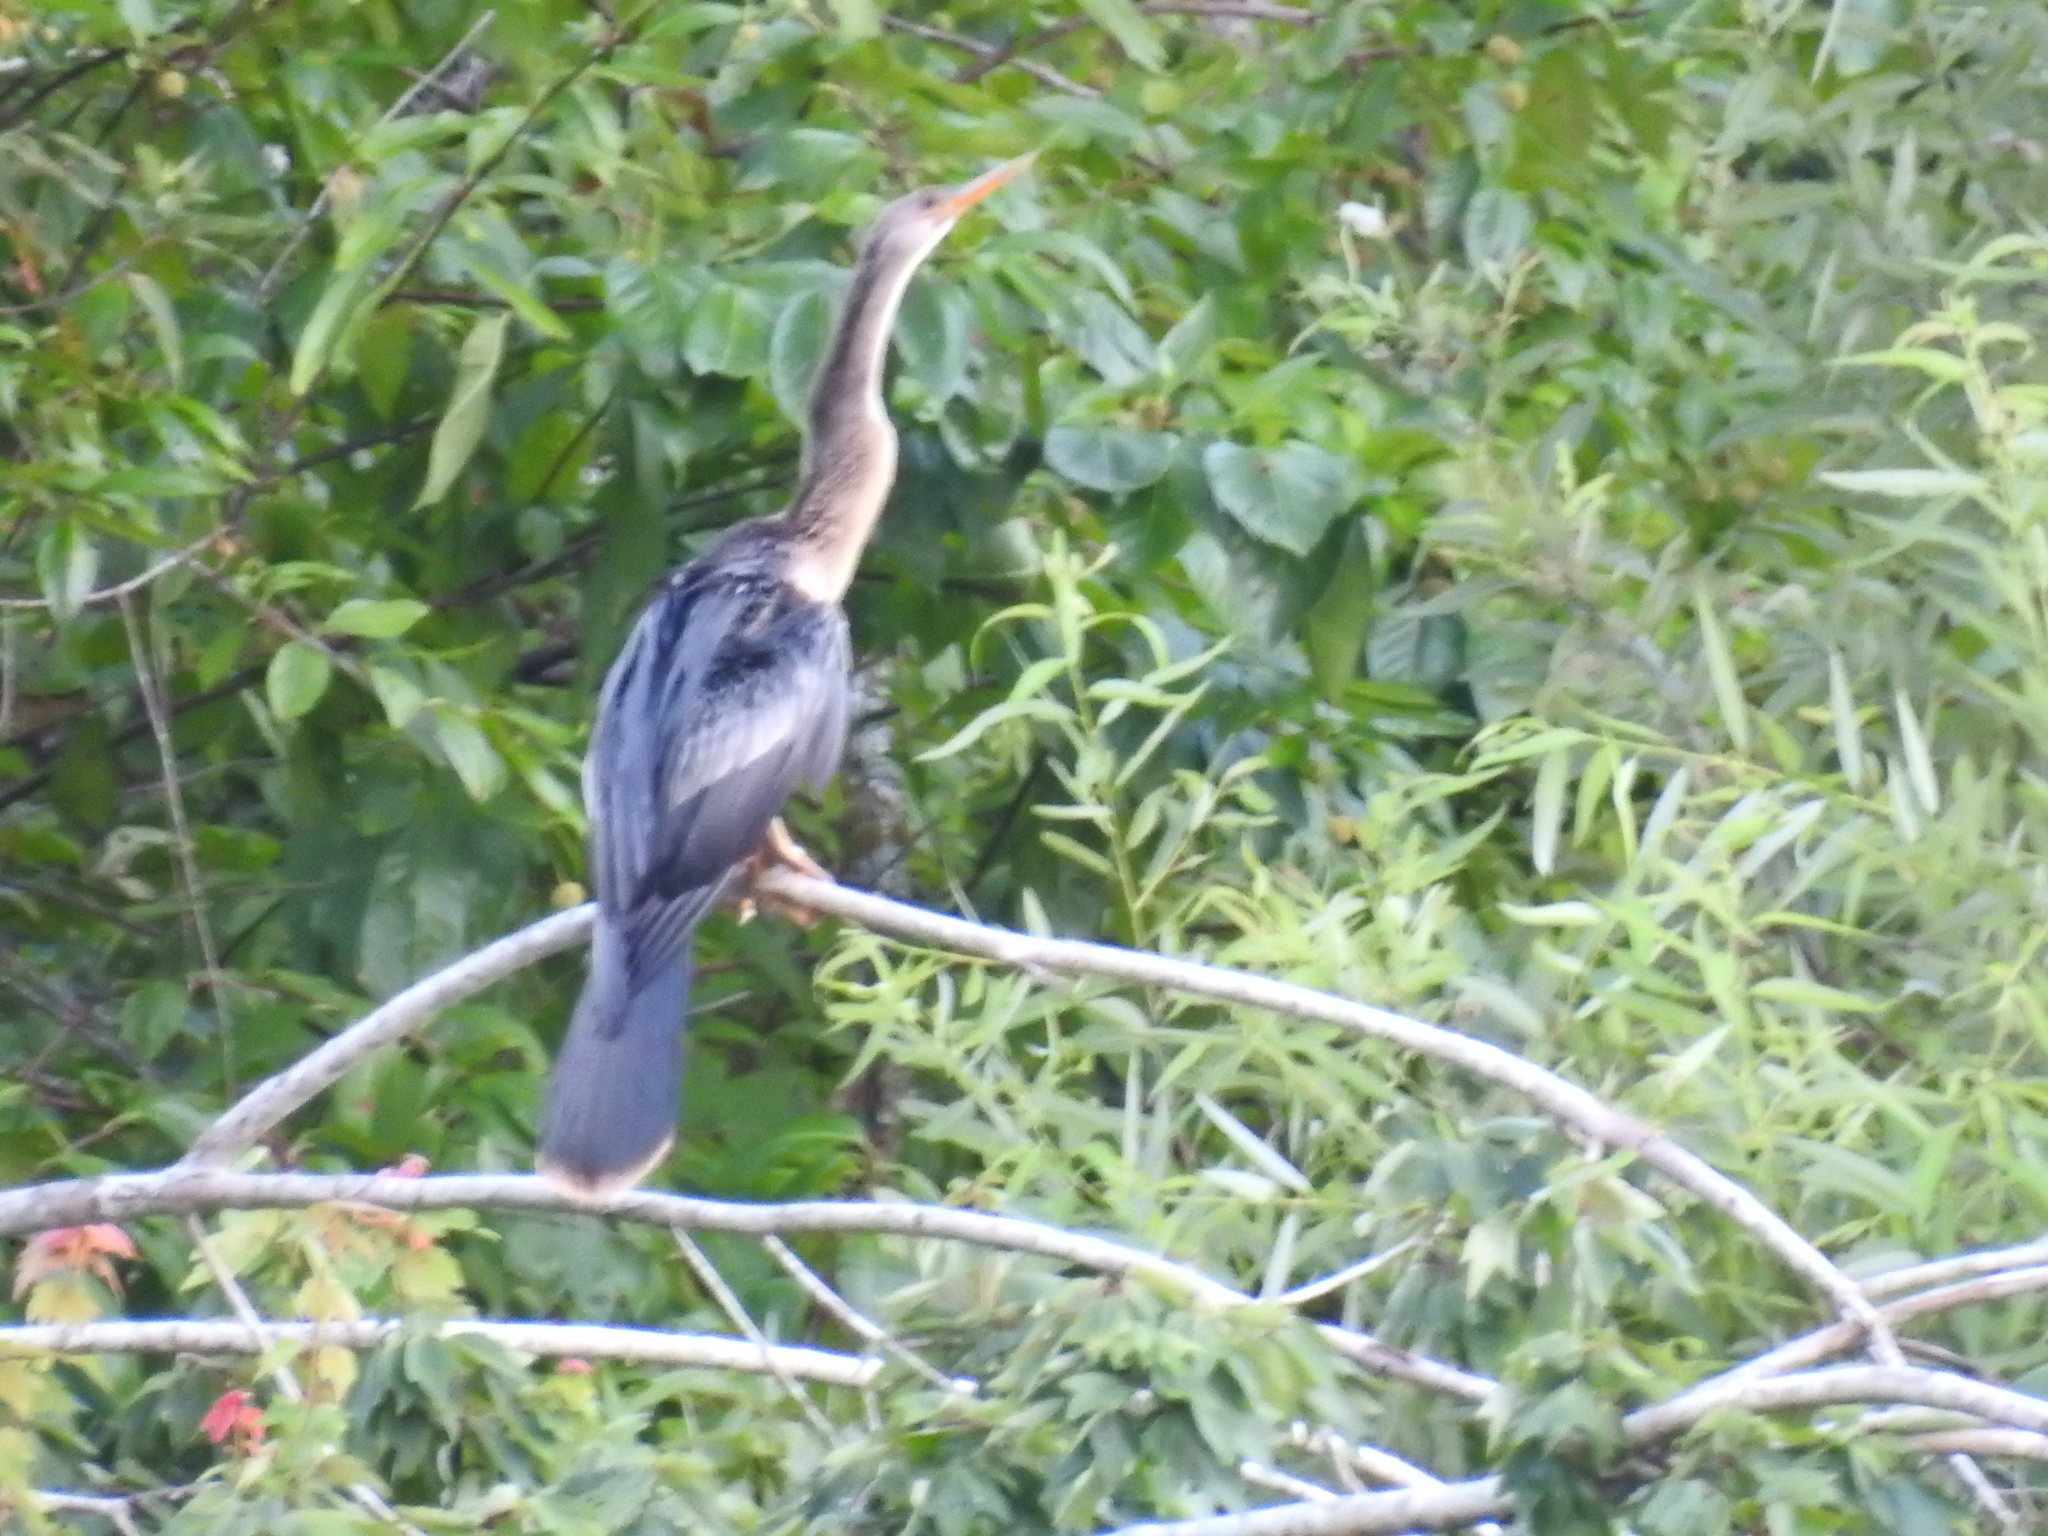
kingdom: Animalia
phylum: Chordata
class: Aves
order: Suliformes
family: Anhingidae
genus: Anhinga
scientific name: Anhinga anhinga
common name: Anhinga
